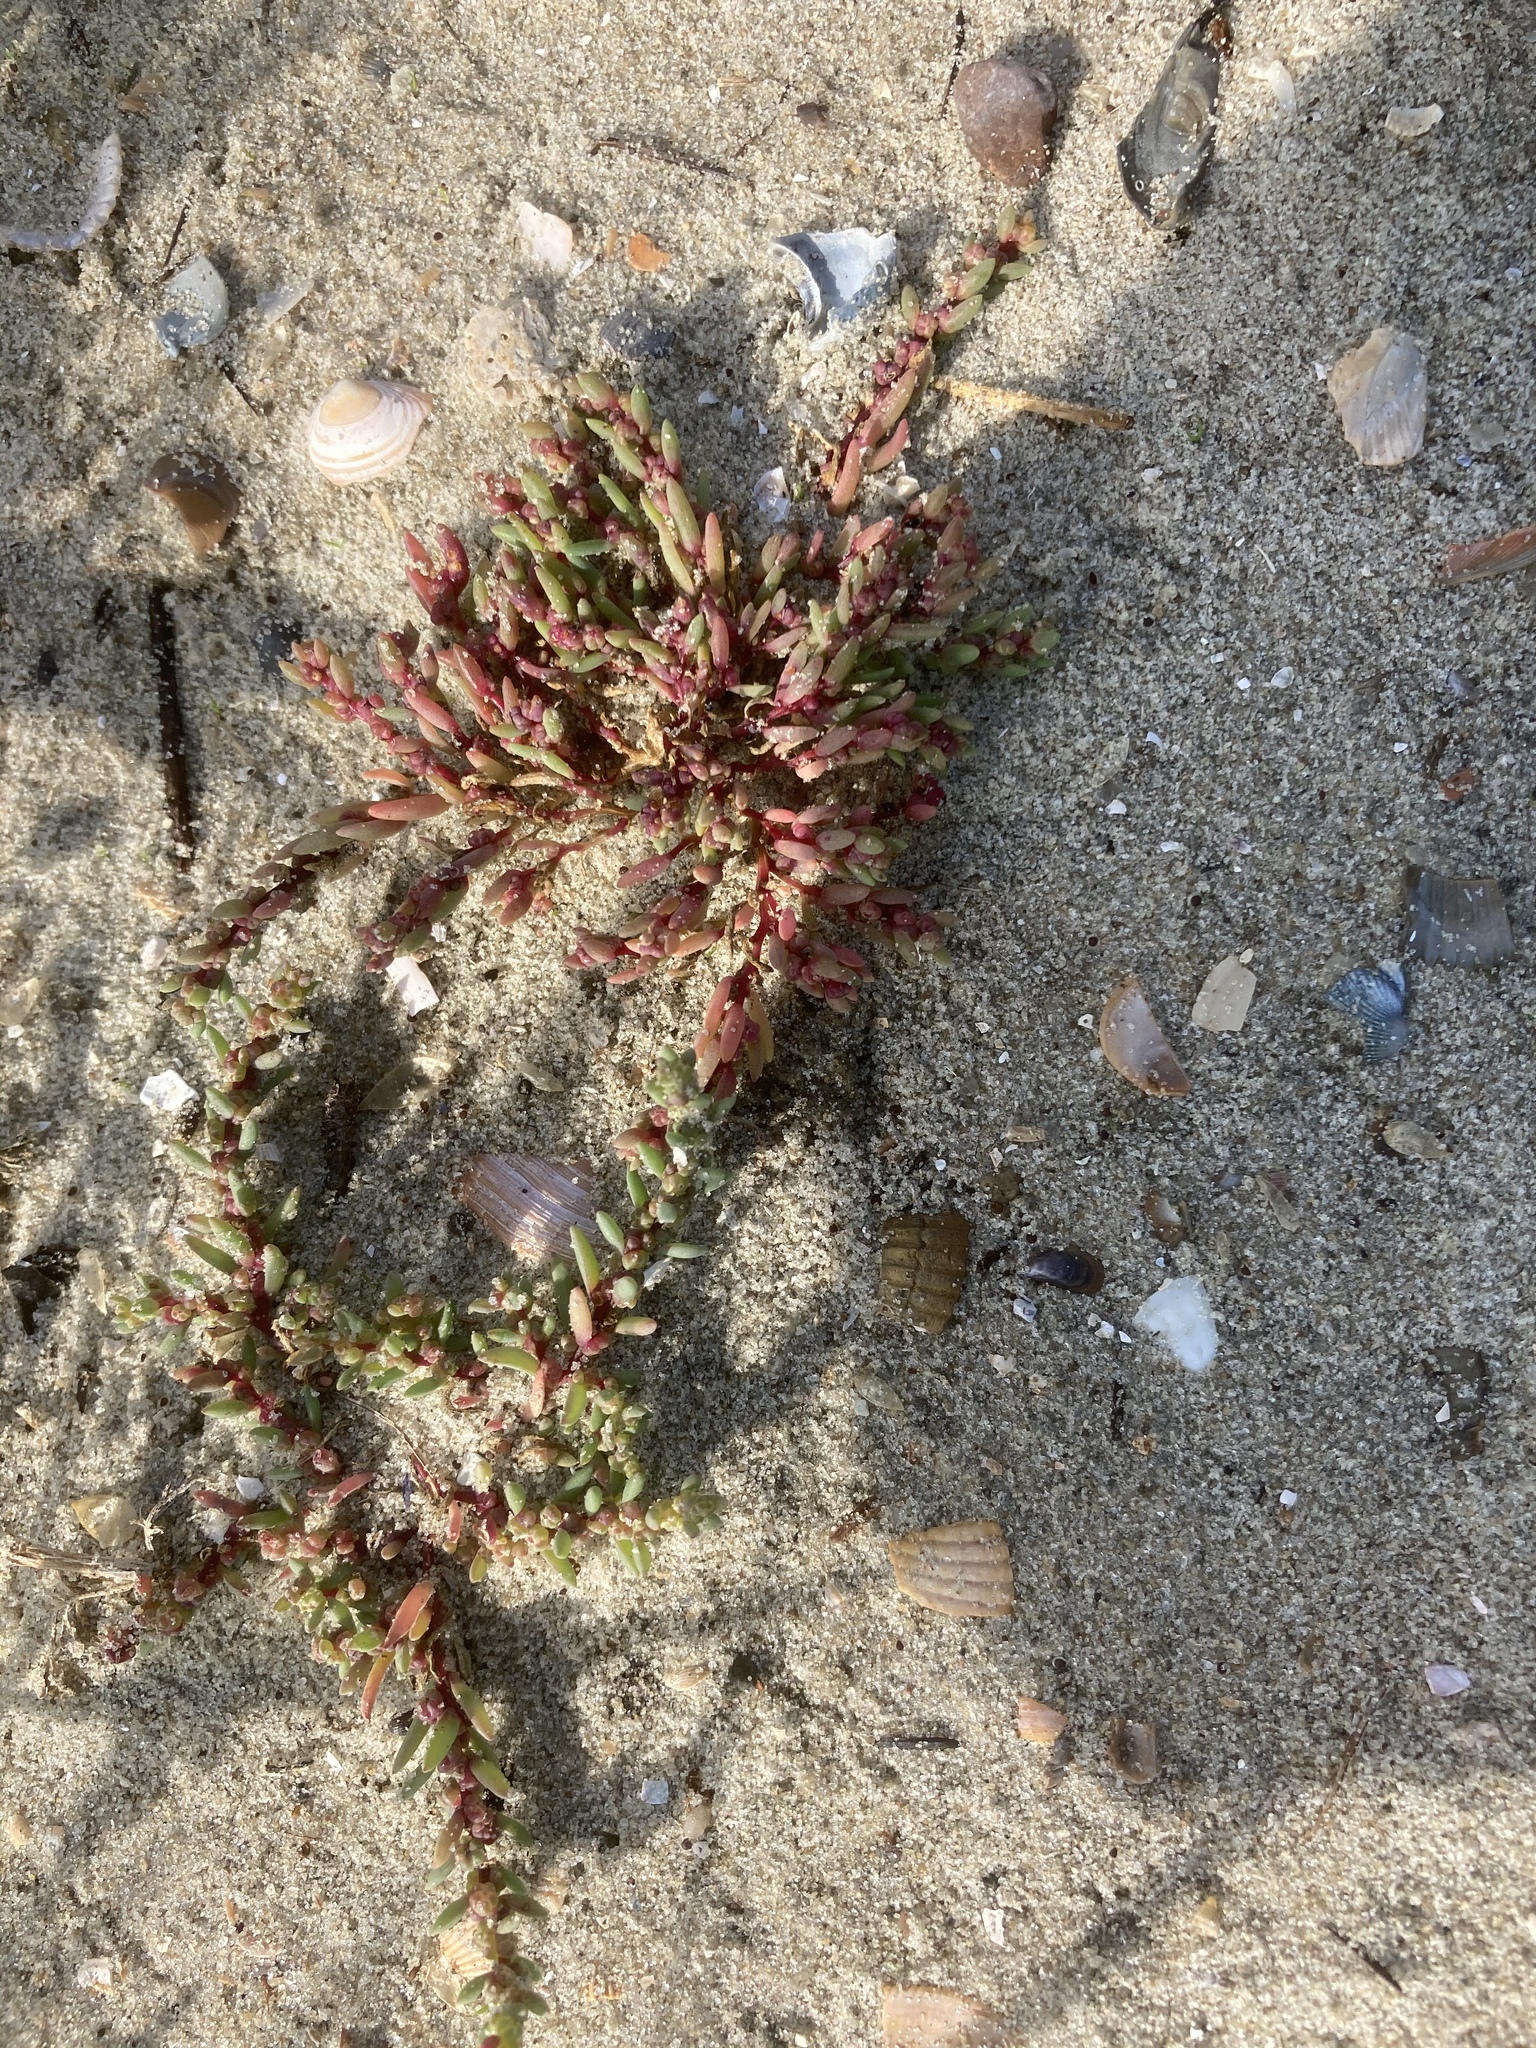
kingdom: Plantae
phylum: Tracheophyta
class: Magnoliopsida
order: Caryophyllales
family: Amaranthaceae
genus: Suaeda
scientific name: Suaeda maritima
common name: Annual sea-blite
